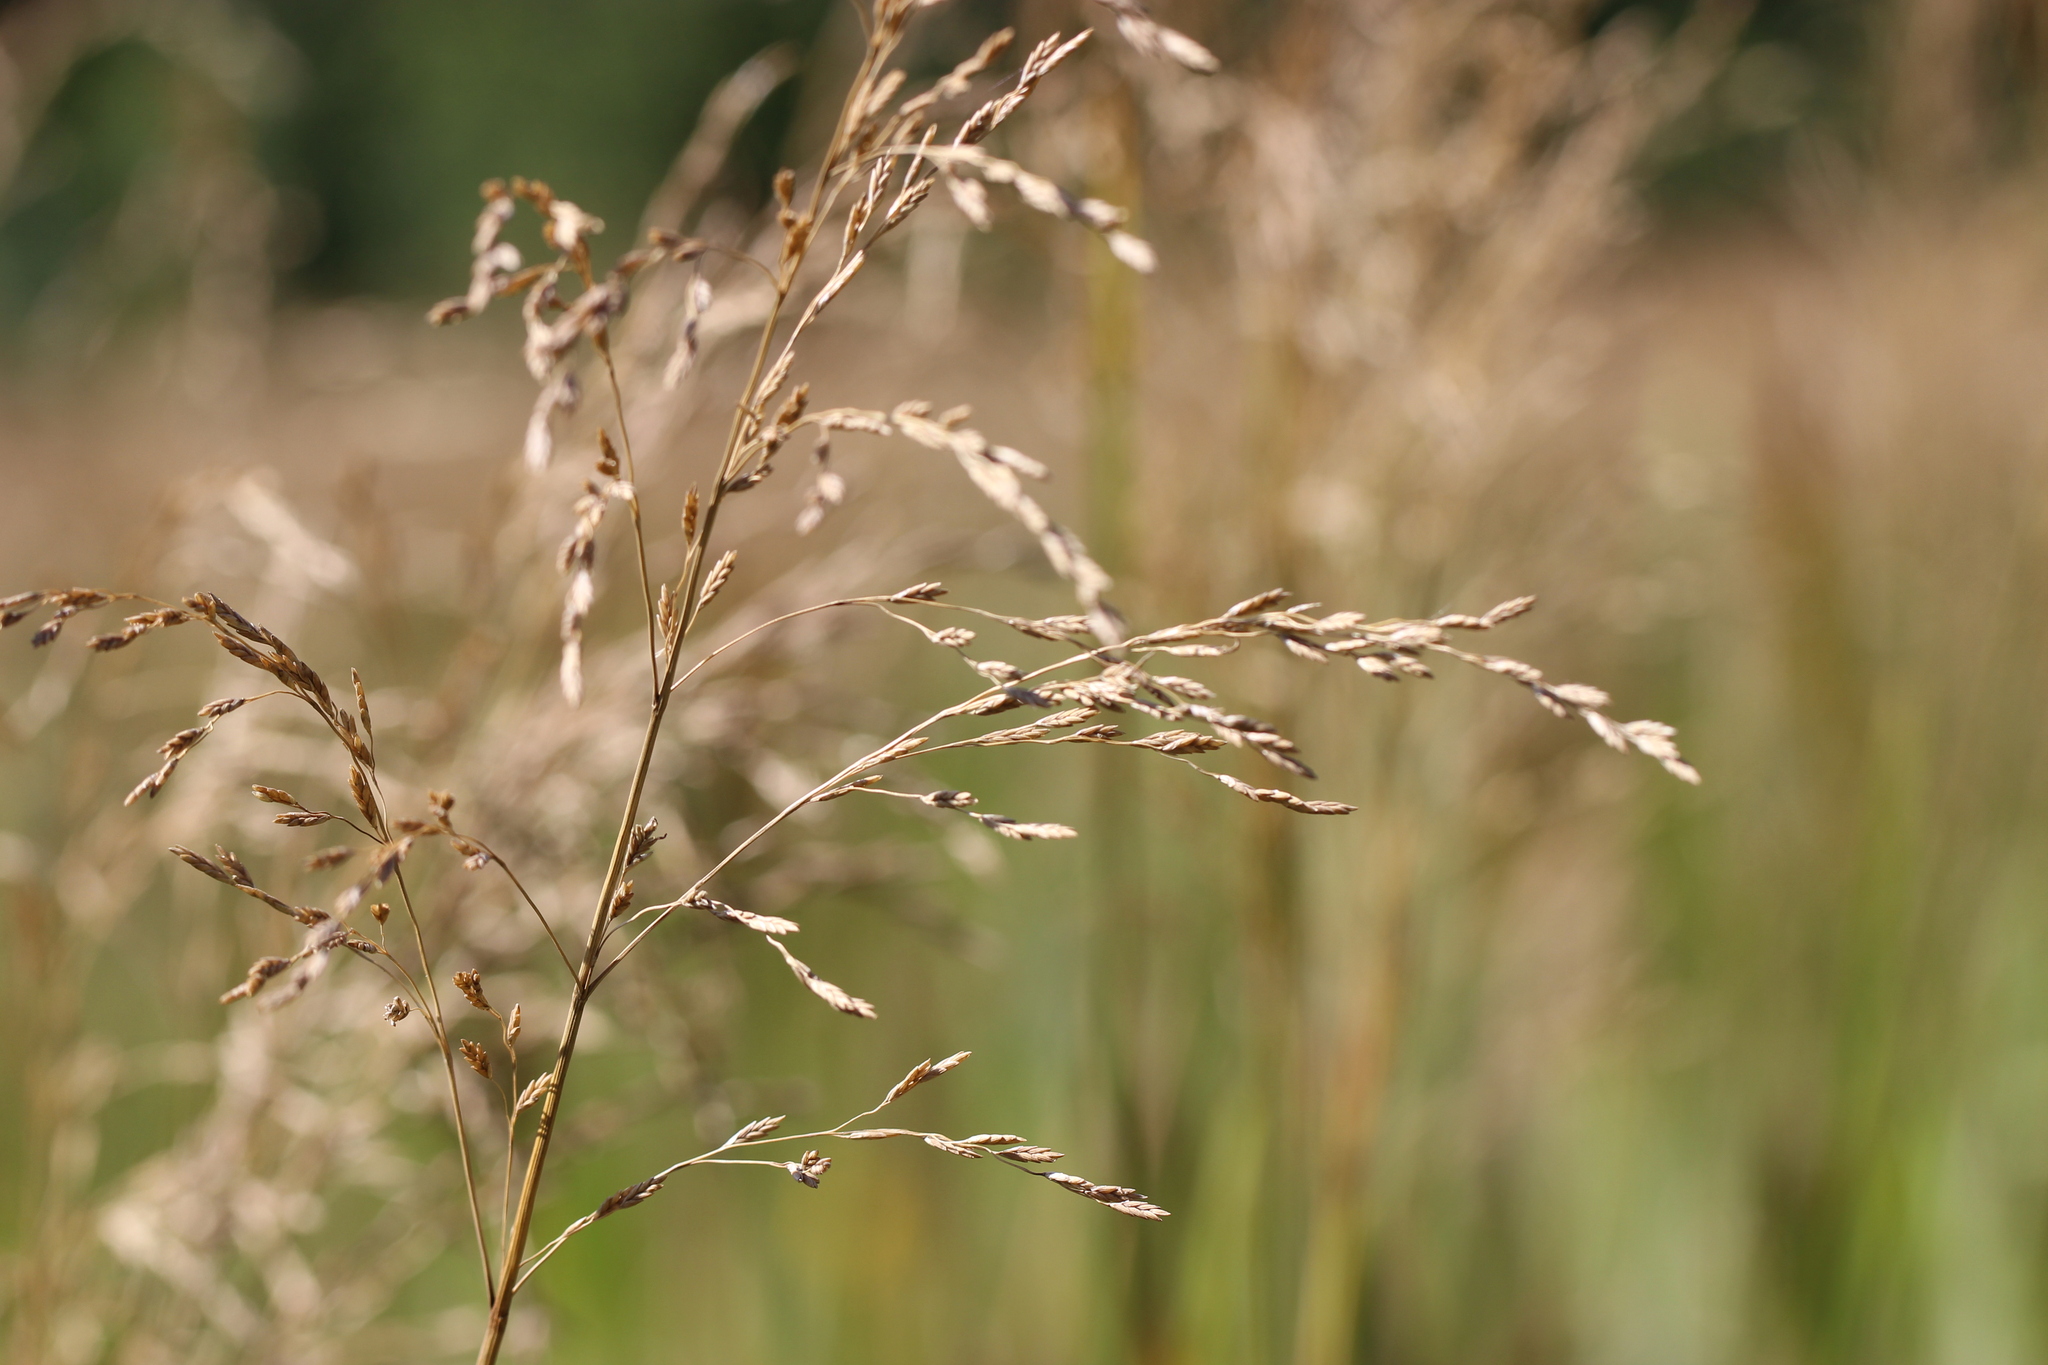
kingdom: Plantae
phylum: Tracheophyta
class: Liliopsida
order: Poales
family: Poaceae
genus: Glyceria
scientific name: Glyceria maxima
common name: Reed mannagrass
